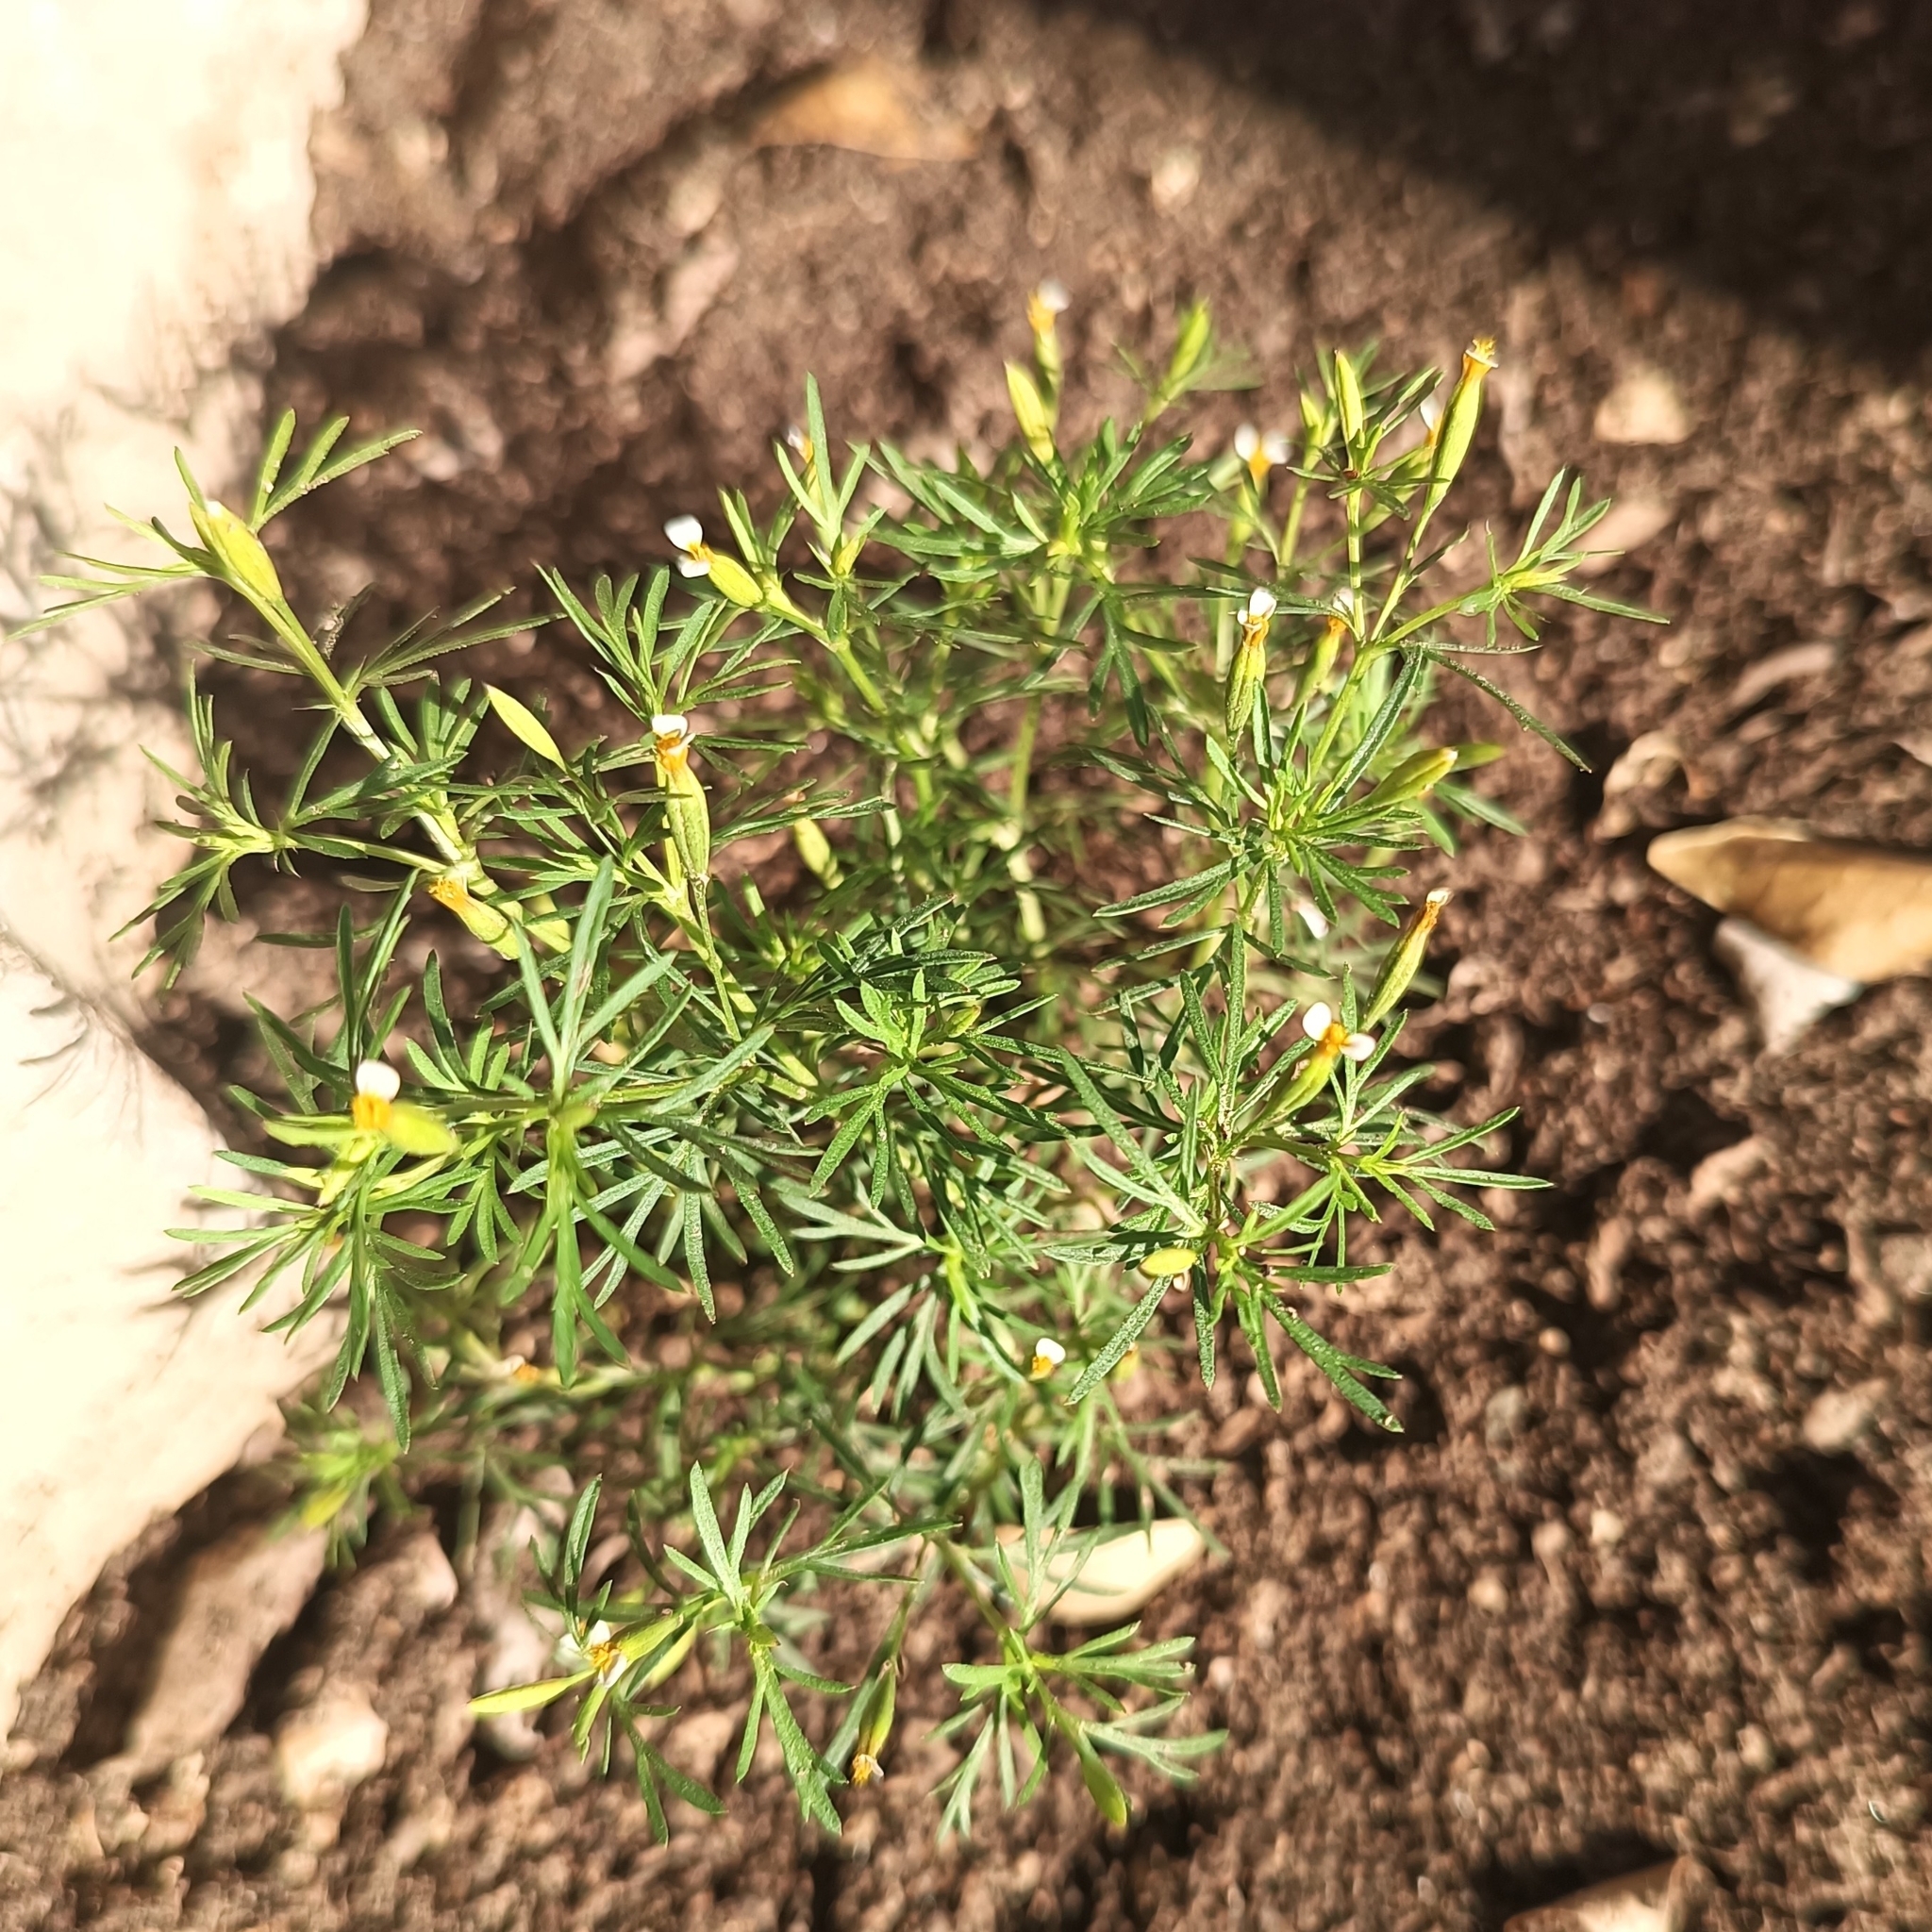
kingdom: Plantae
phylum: Tracheophyta
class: Magnoliopsida
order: Asterales
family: Asteraceae
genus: Tagetes
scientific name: Tagetes filifolia
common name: Lesser marigold
